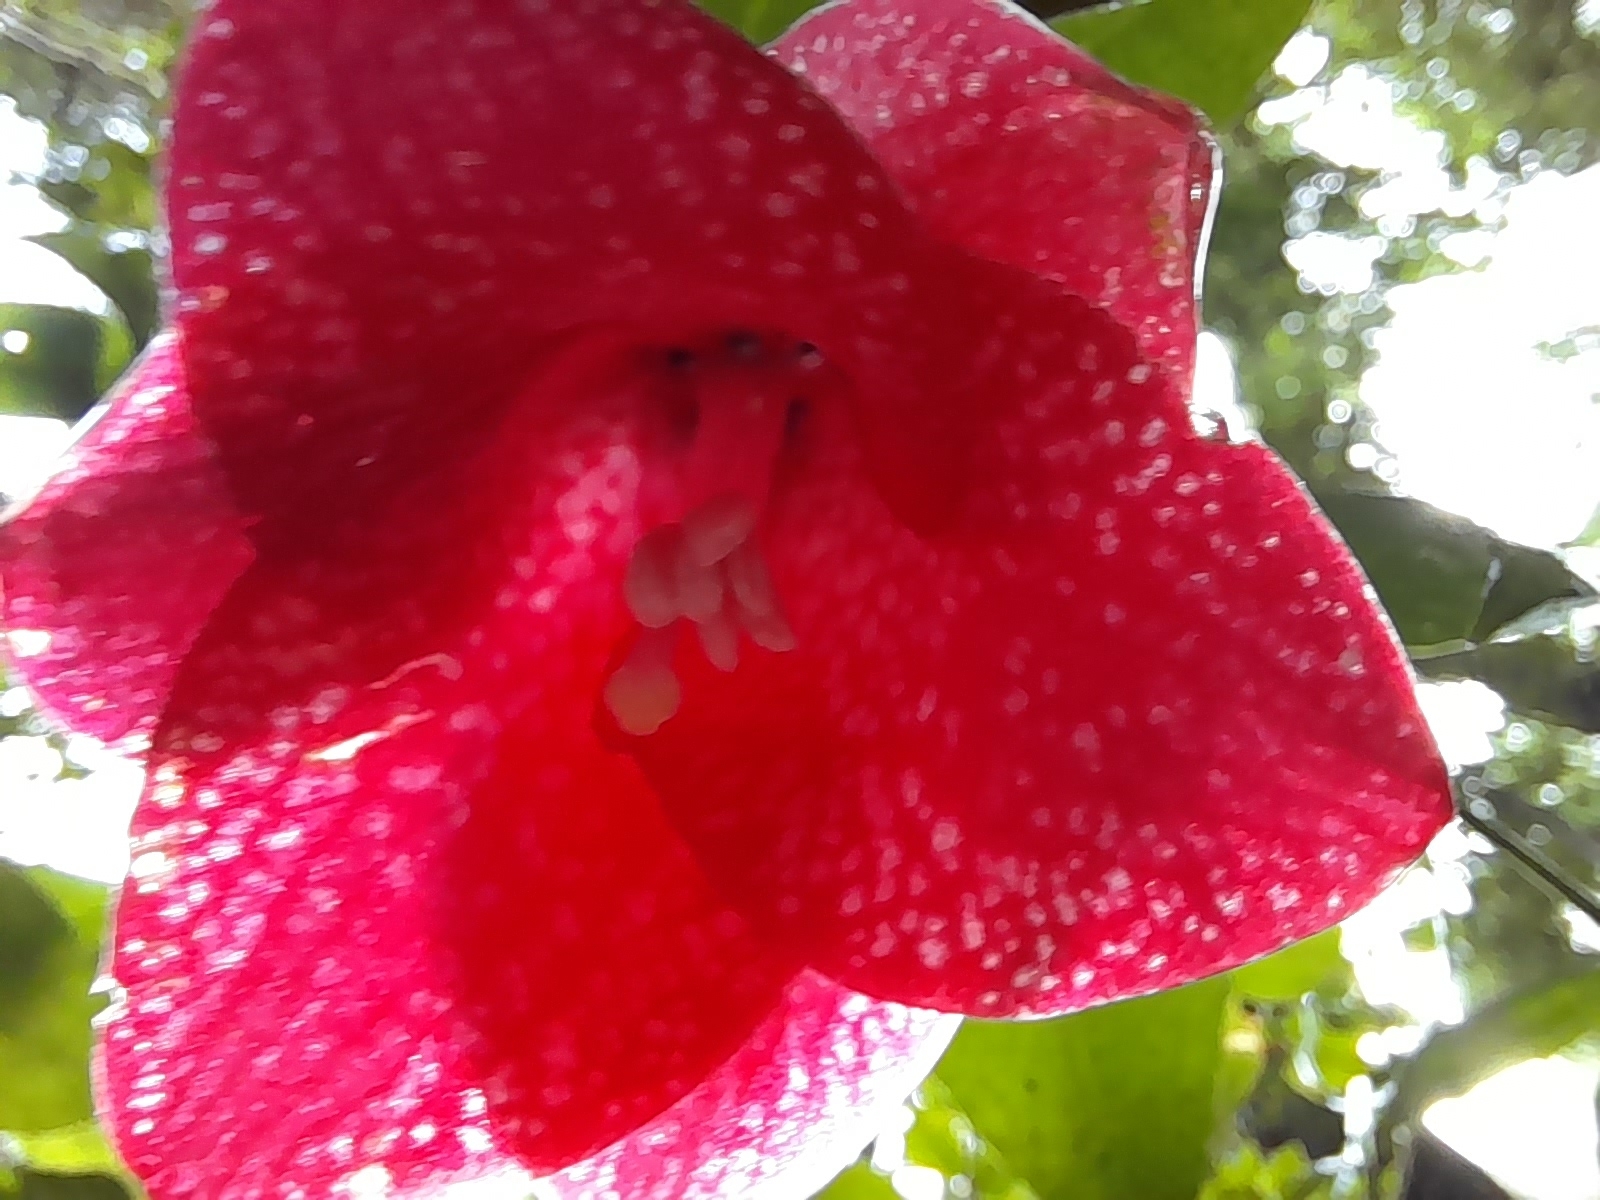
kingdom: Plantae
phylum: Tracheophyta
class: Liliopsida
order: Liliales
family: Philesiaceae
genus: Lapageria
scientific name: Lapageria rosea
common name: Chilean-bellflower
